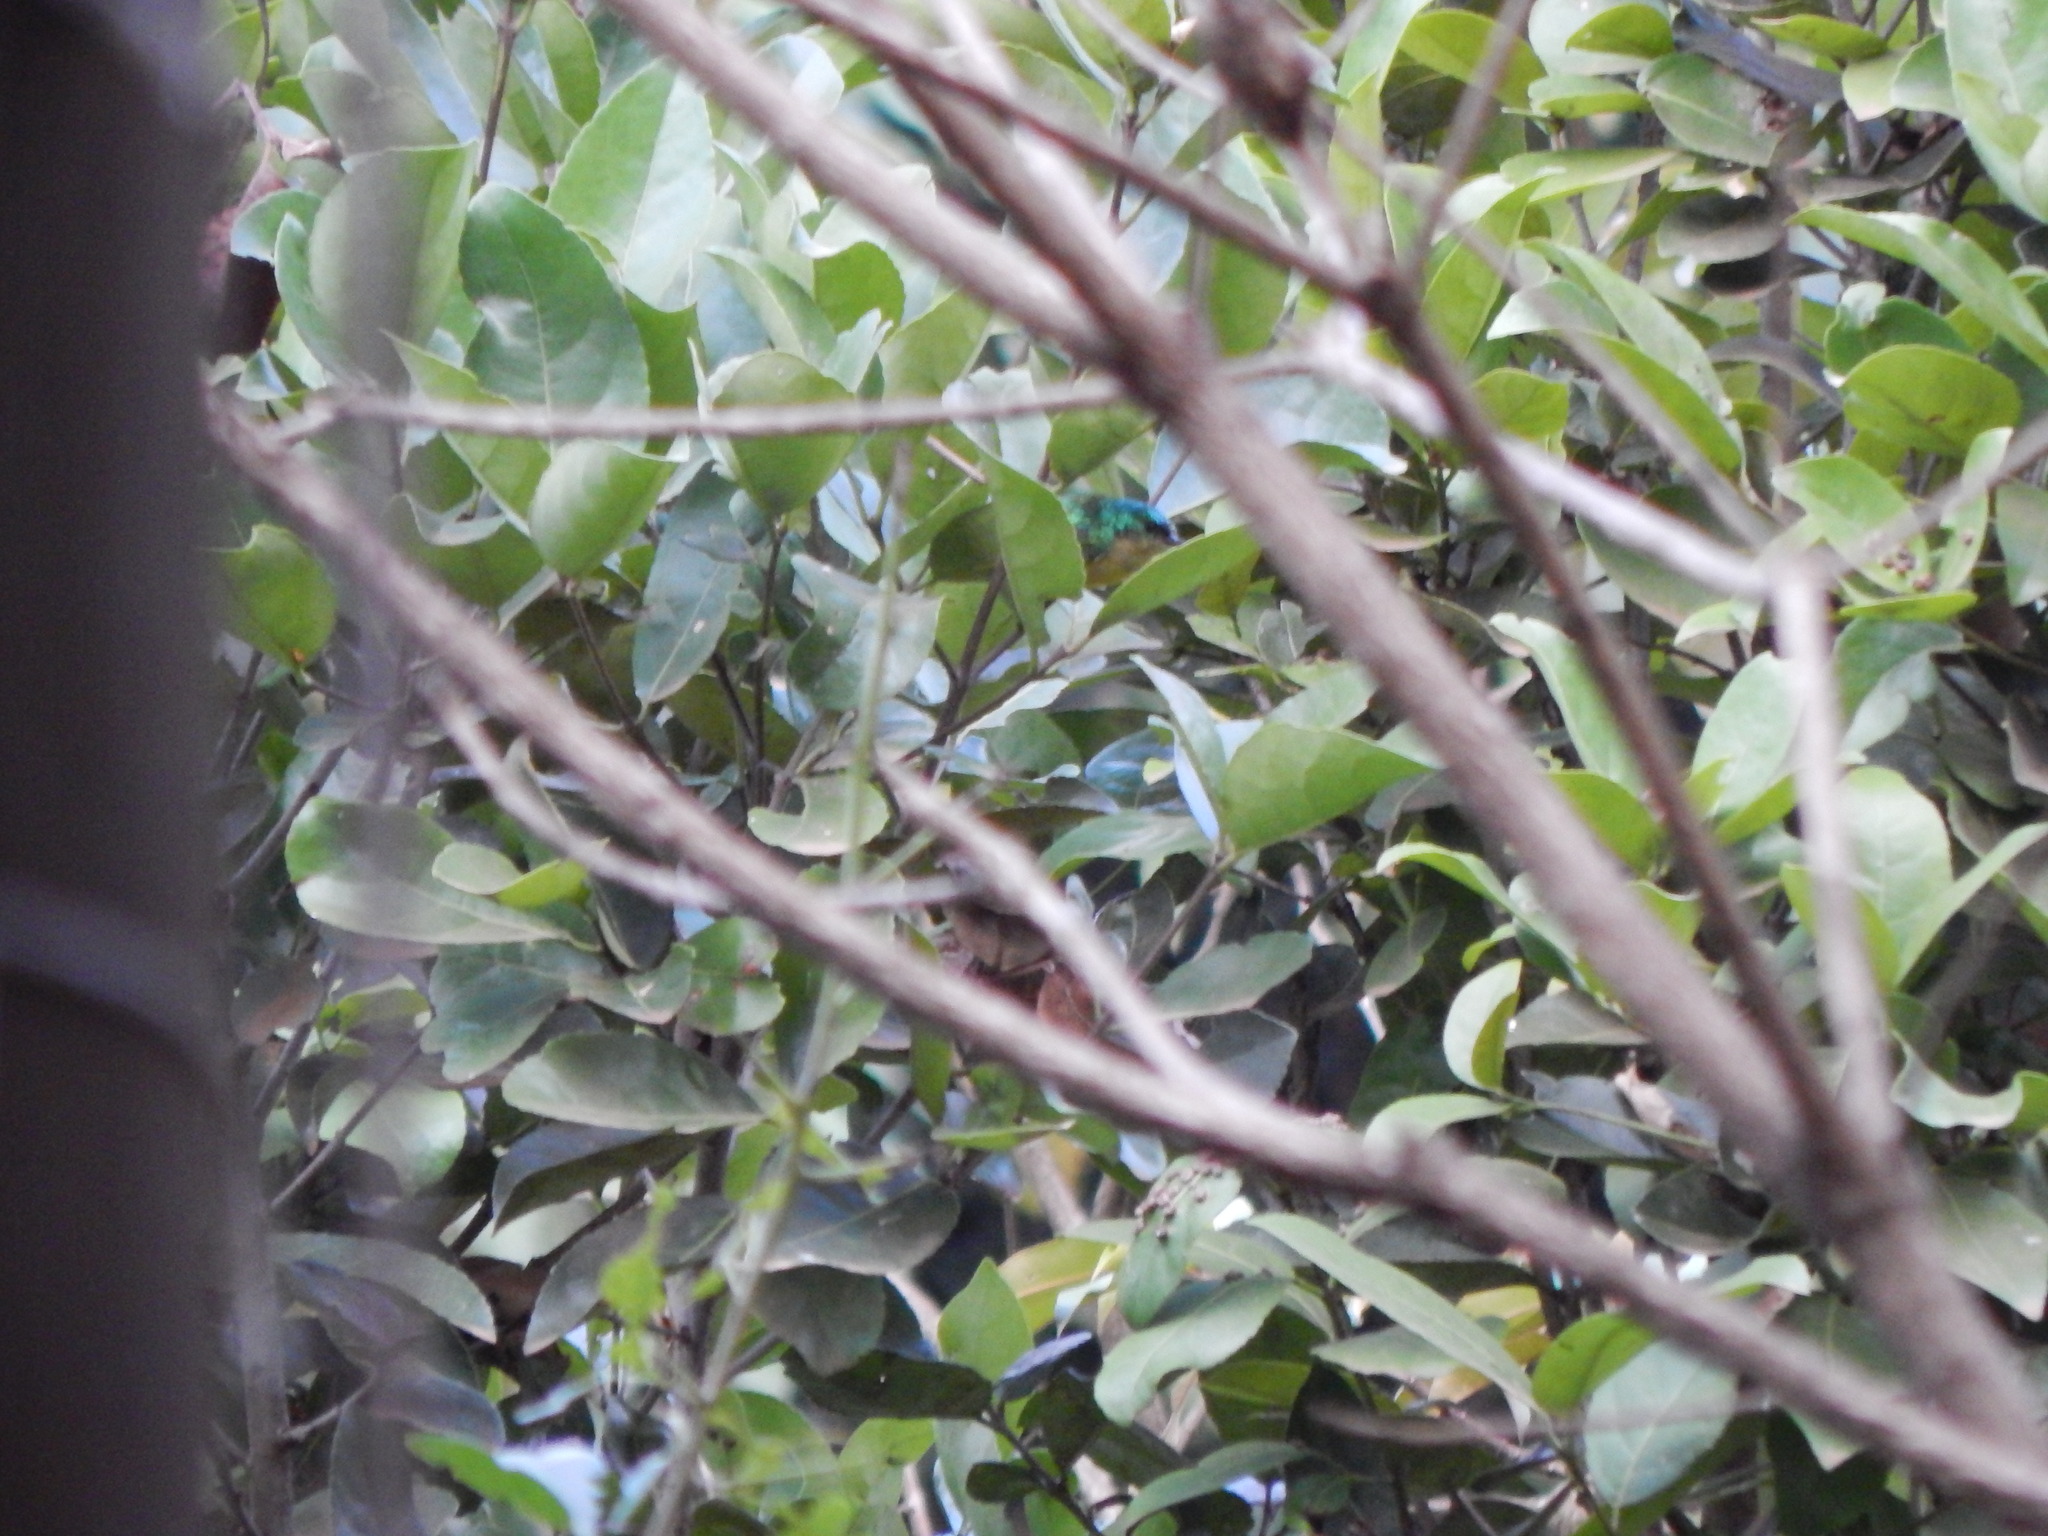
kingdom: Animalia
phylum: Chordata
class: Aves
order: Passeriformes
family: Nectariniidae
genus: Hedydipna
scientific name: Hedydipna collaris
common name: Collared sunbird
